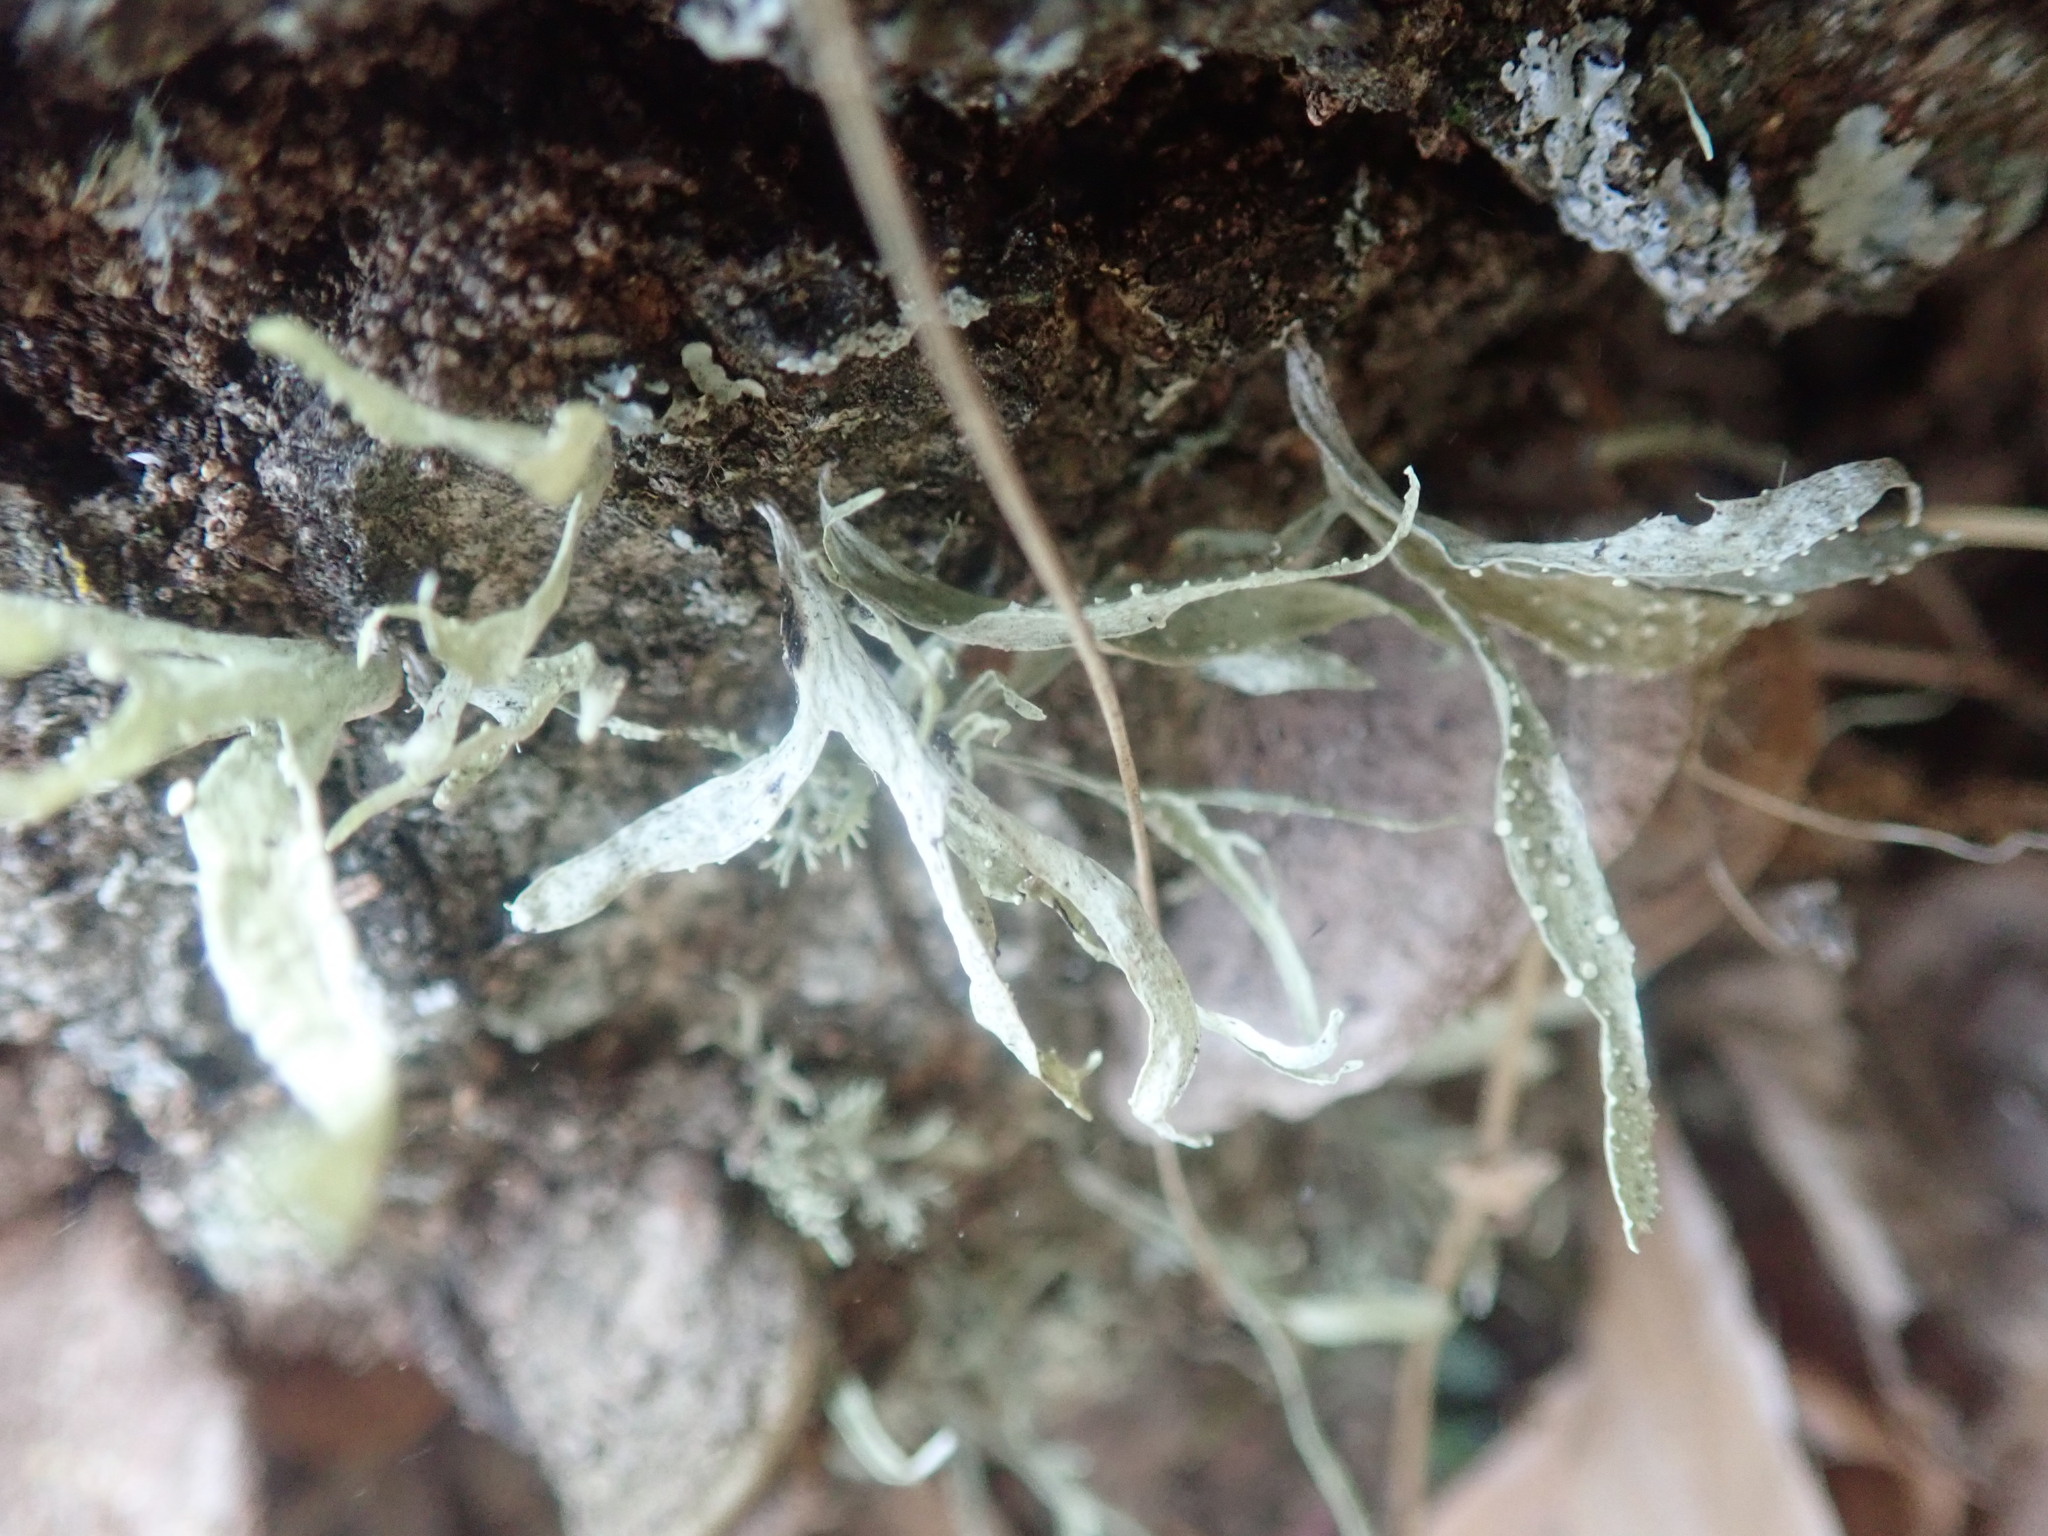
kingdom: Fungi
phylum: Ascomycota
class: Lecanoromycetes
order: Lecanorales
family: Ramalinaceae
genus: Ramalina
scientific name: Ramalina celastri
